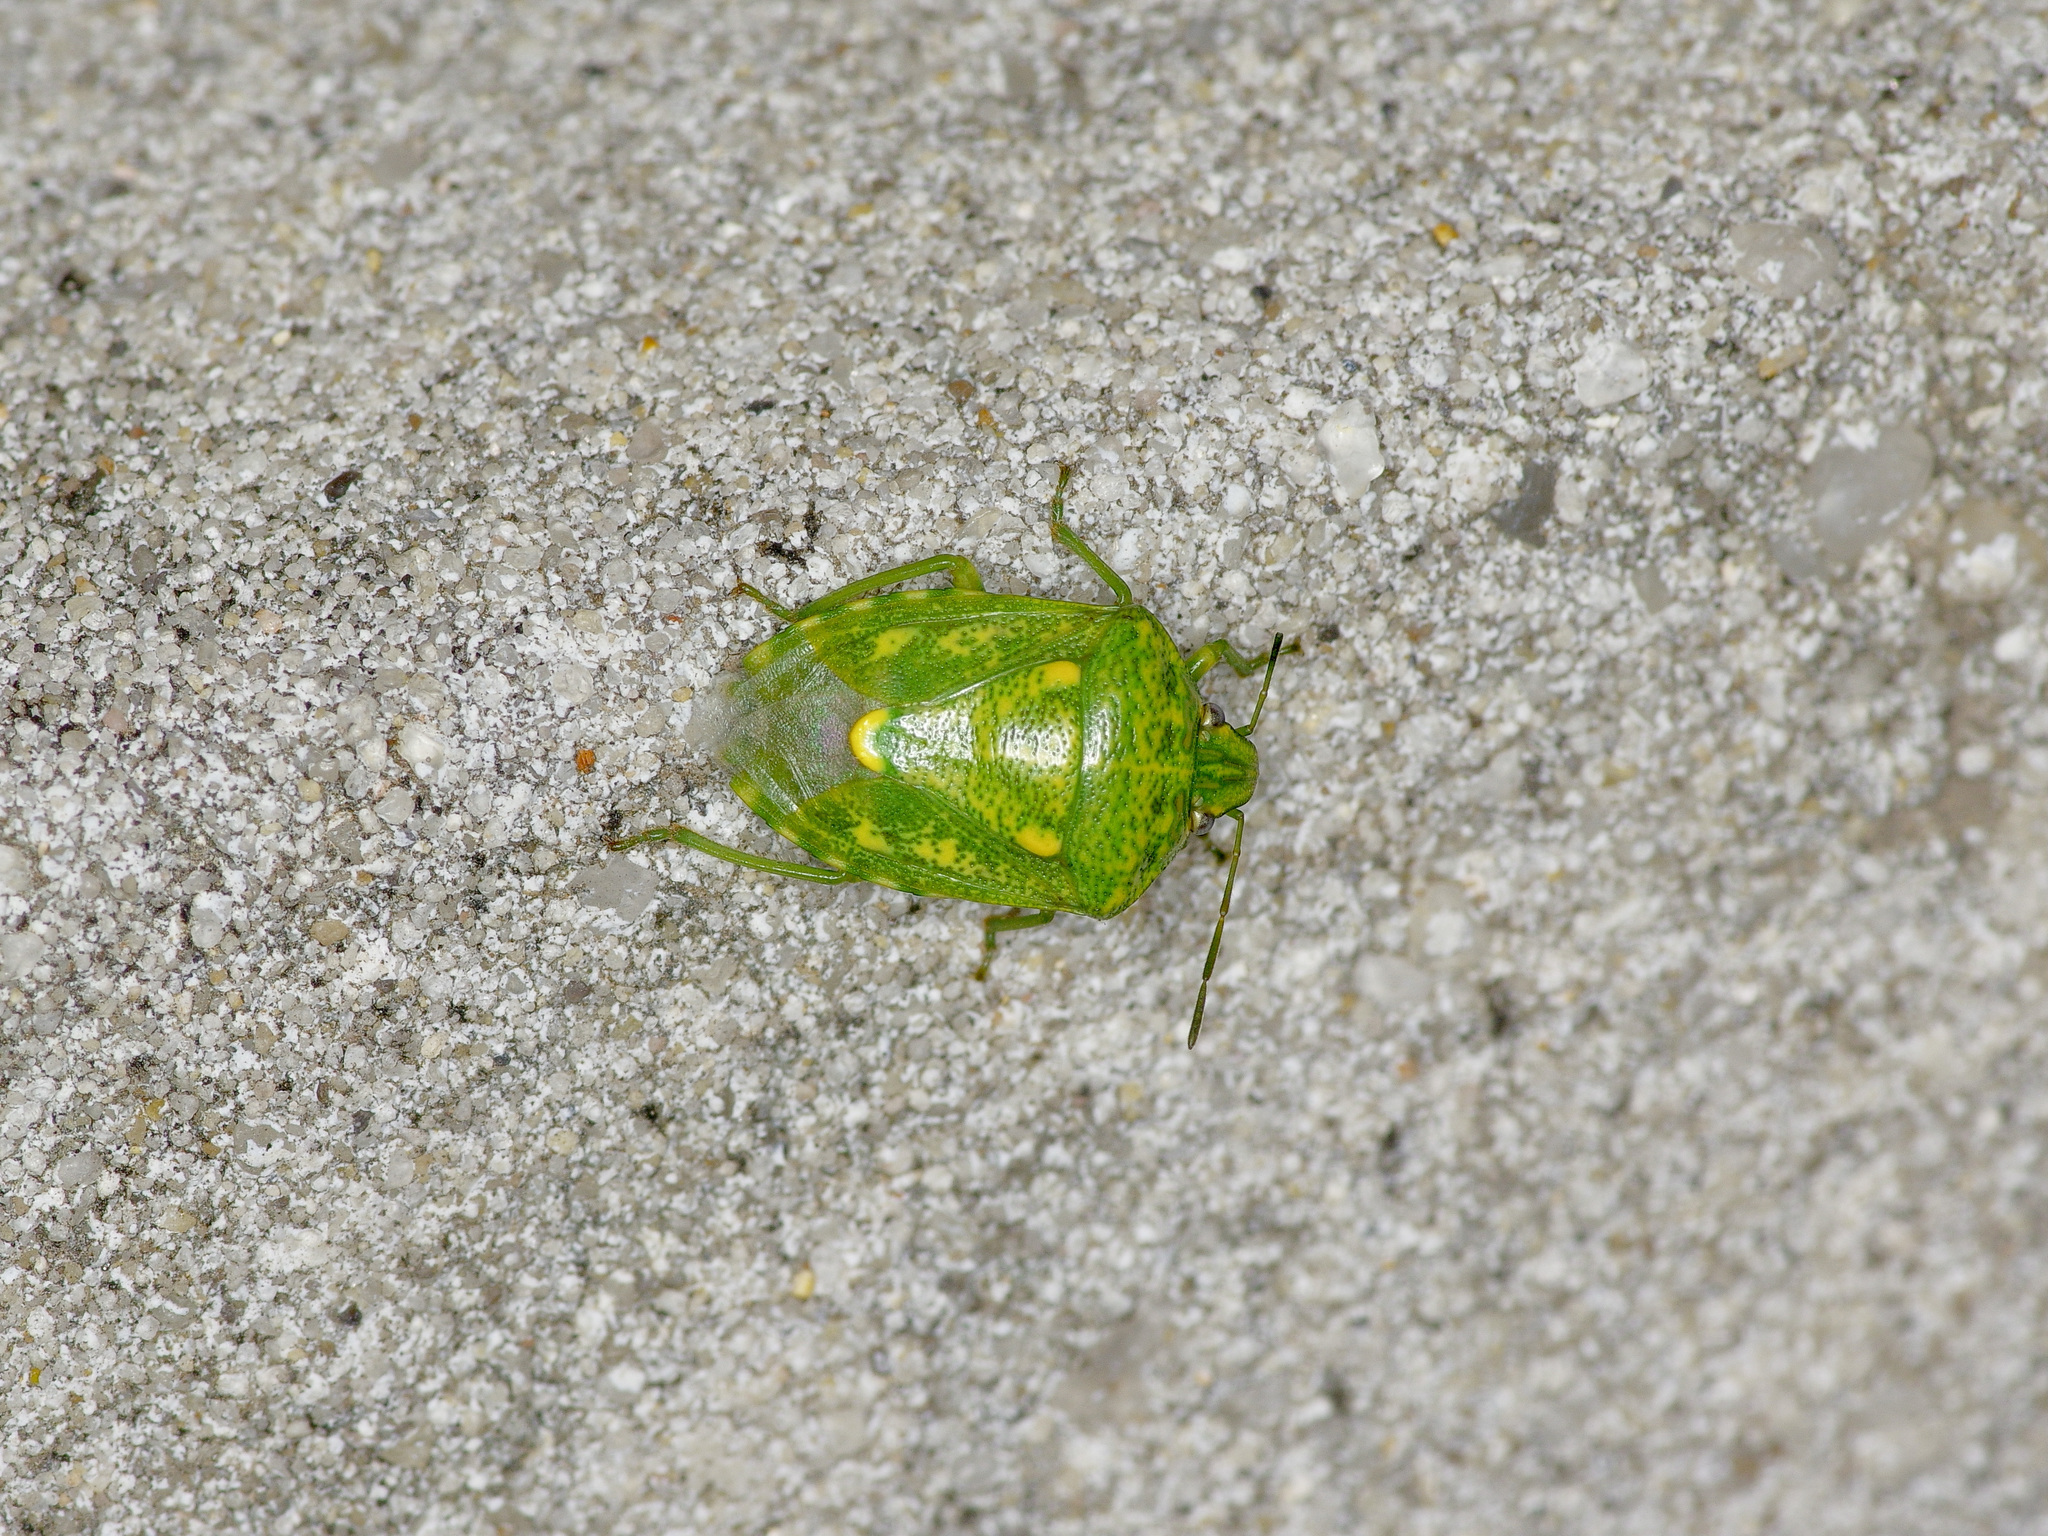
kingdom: Animalia
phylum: Arthropoda
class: Insecta
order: Hemiptera
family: Pentatomidae
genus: Banasa
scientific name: Banasa euchlora
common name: Cedar berry bug
